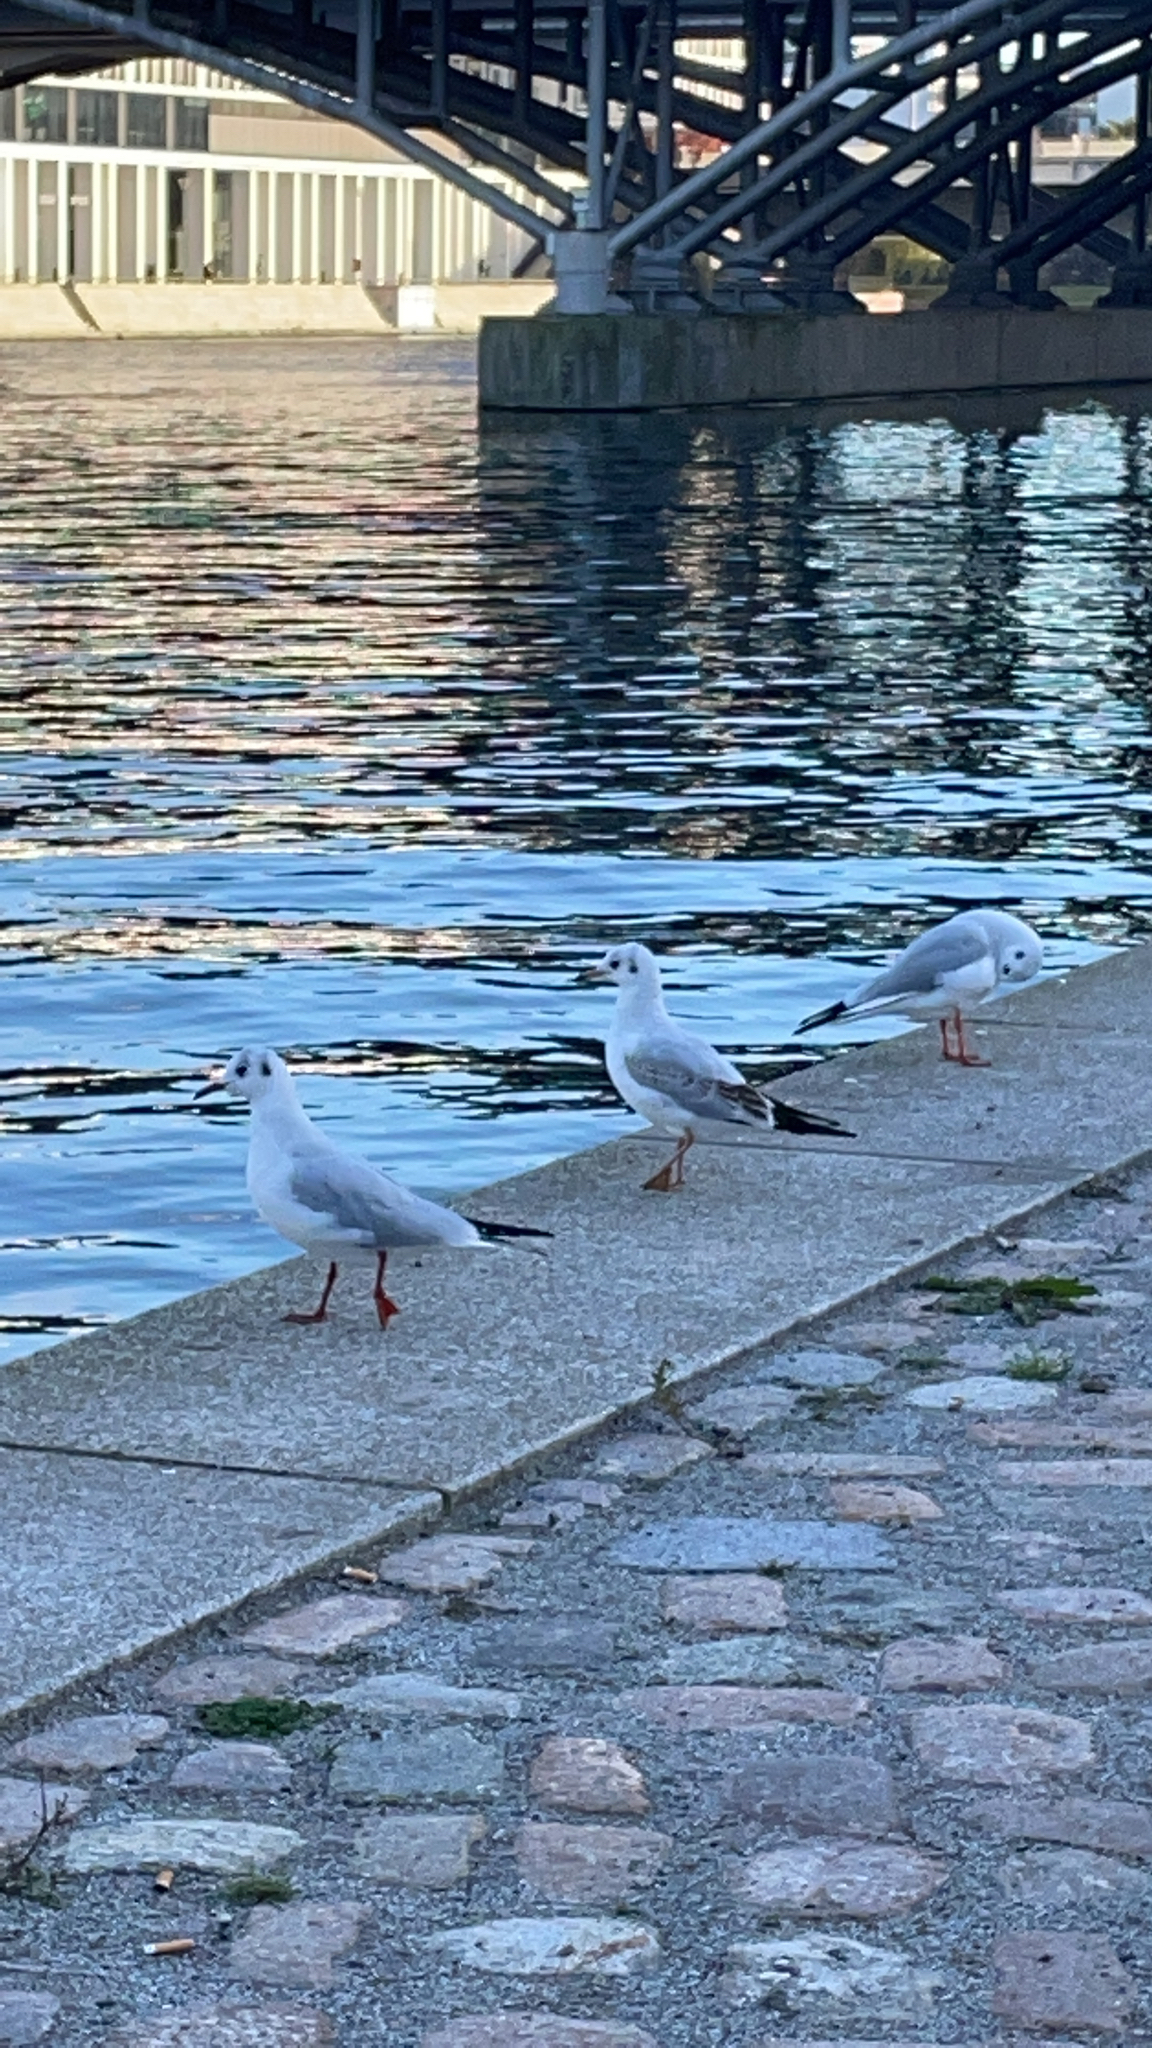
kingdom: Animalia
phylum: Chordata
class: Aves
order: Charadriiformes
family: Laridae
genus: Chroicocephalus
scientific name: Chroicocephalus ridibundus
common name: Black-headed gull
